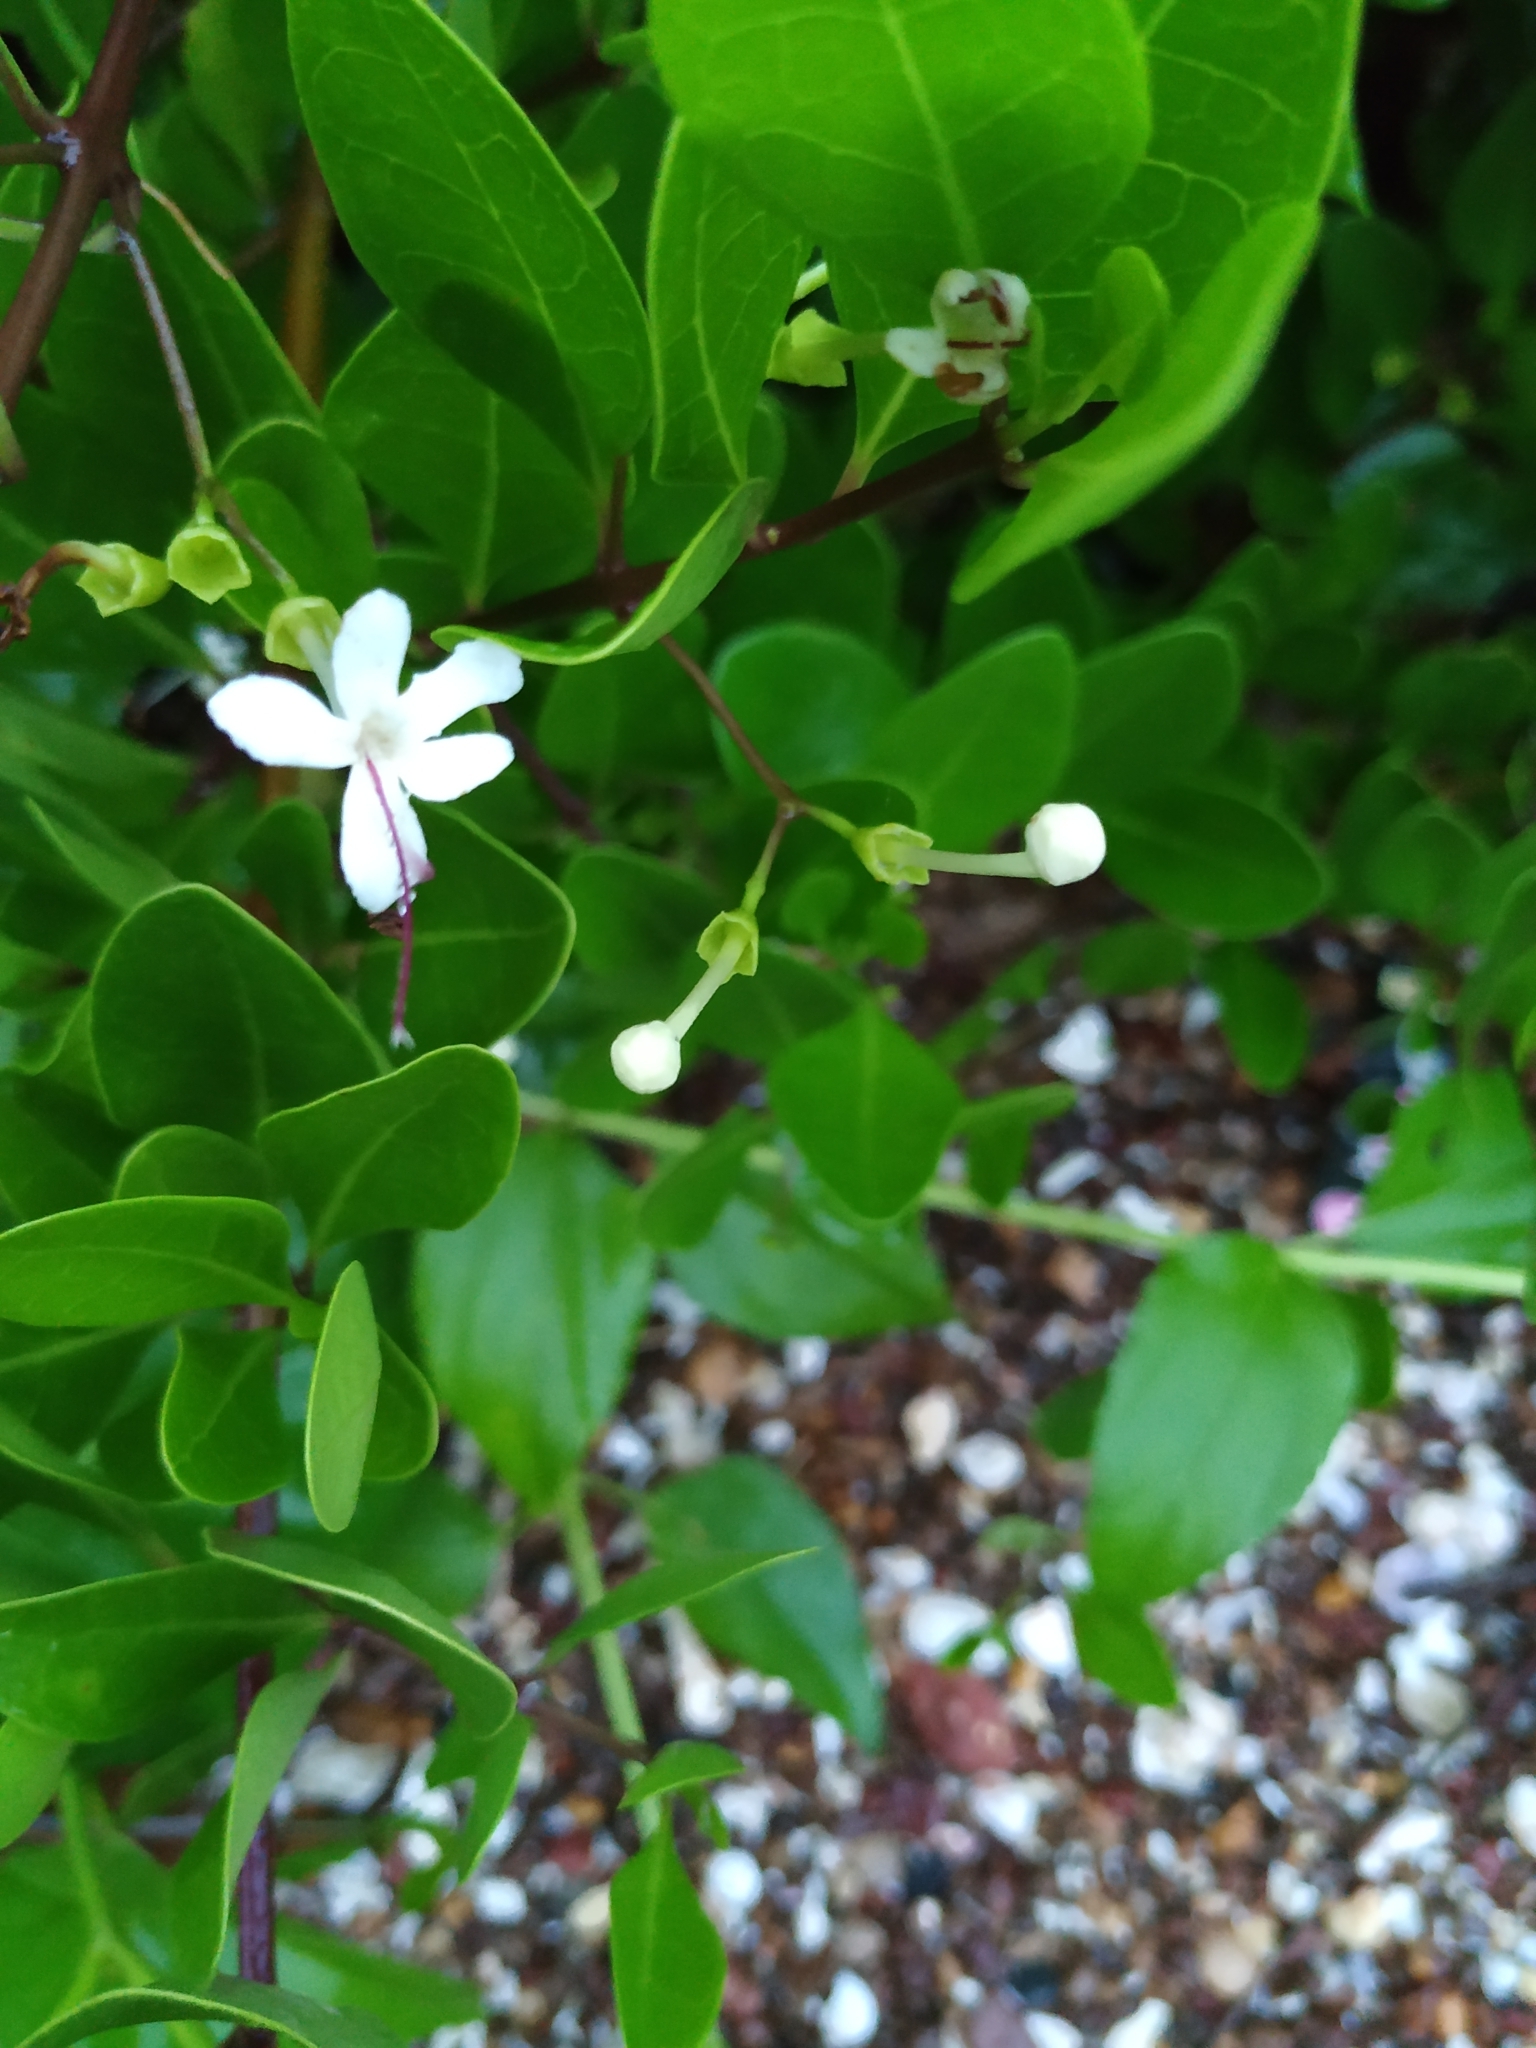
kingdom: Plantae
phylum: Tracheophyta
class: Magnoliopsida
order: Lamiales
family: Lamiaceae
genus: Volkameria
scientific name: Volkameria inermis
